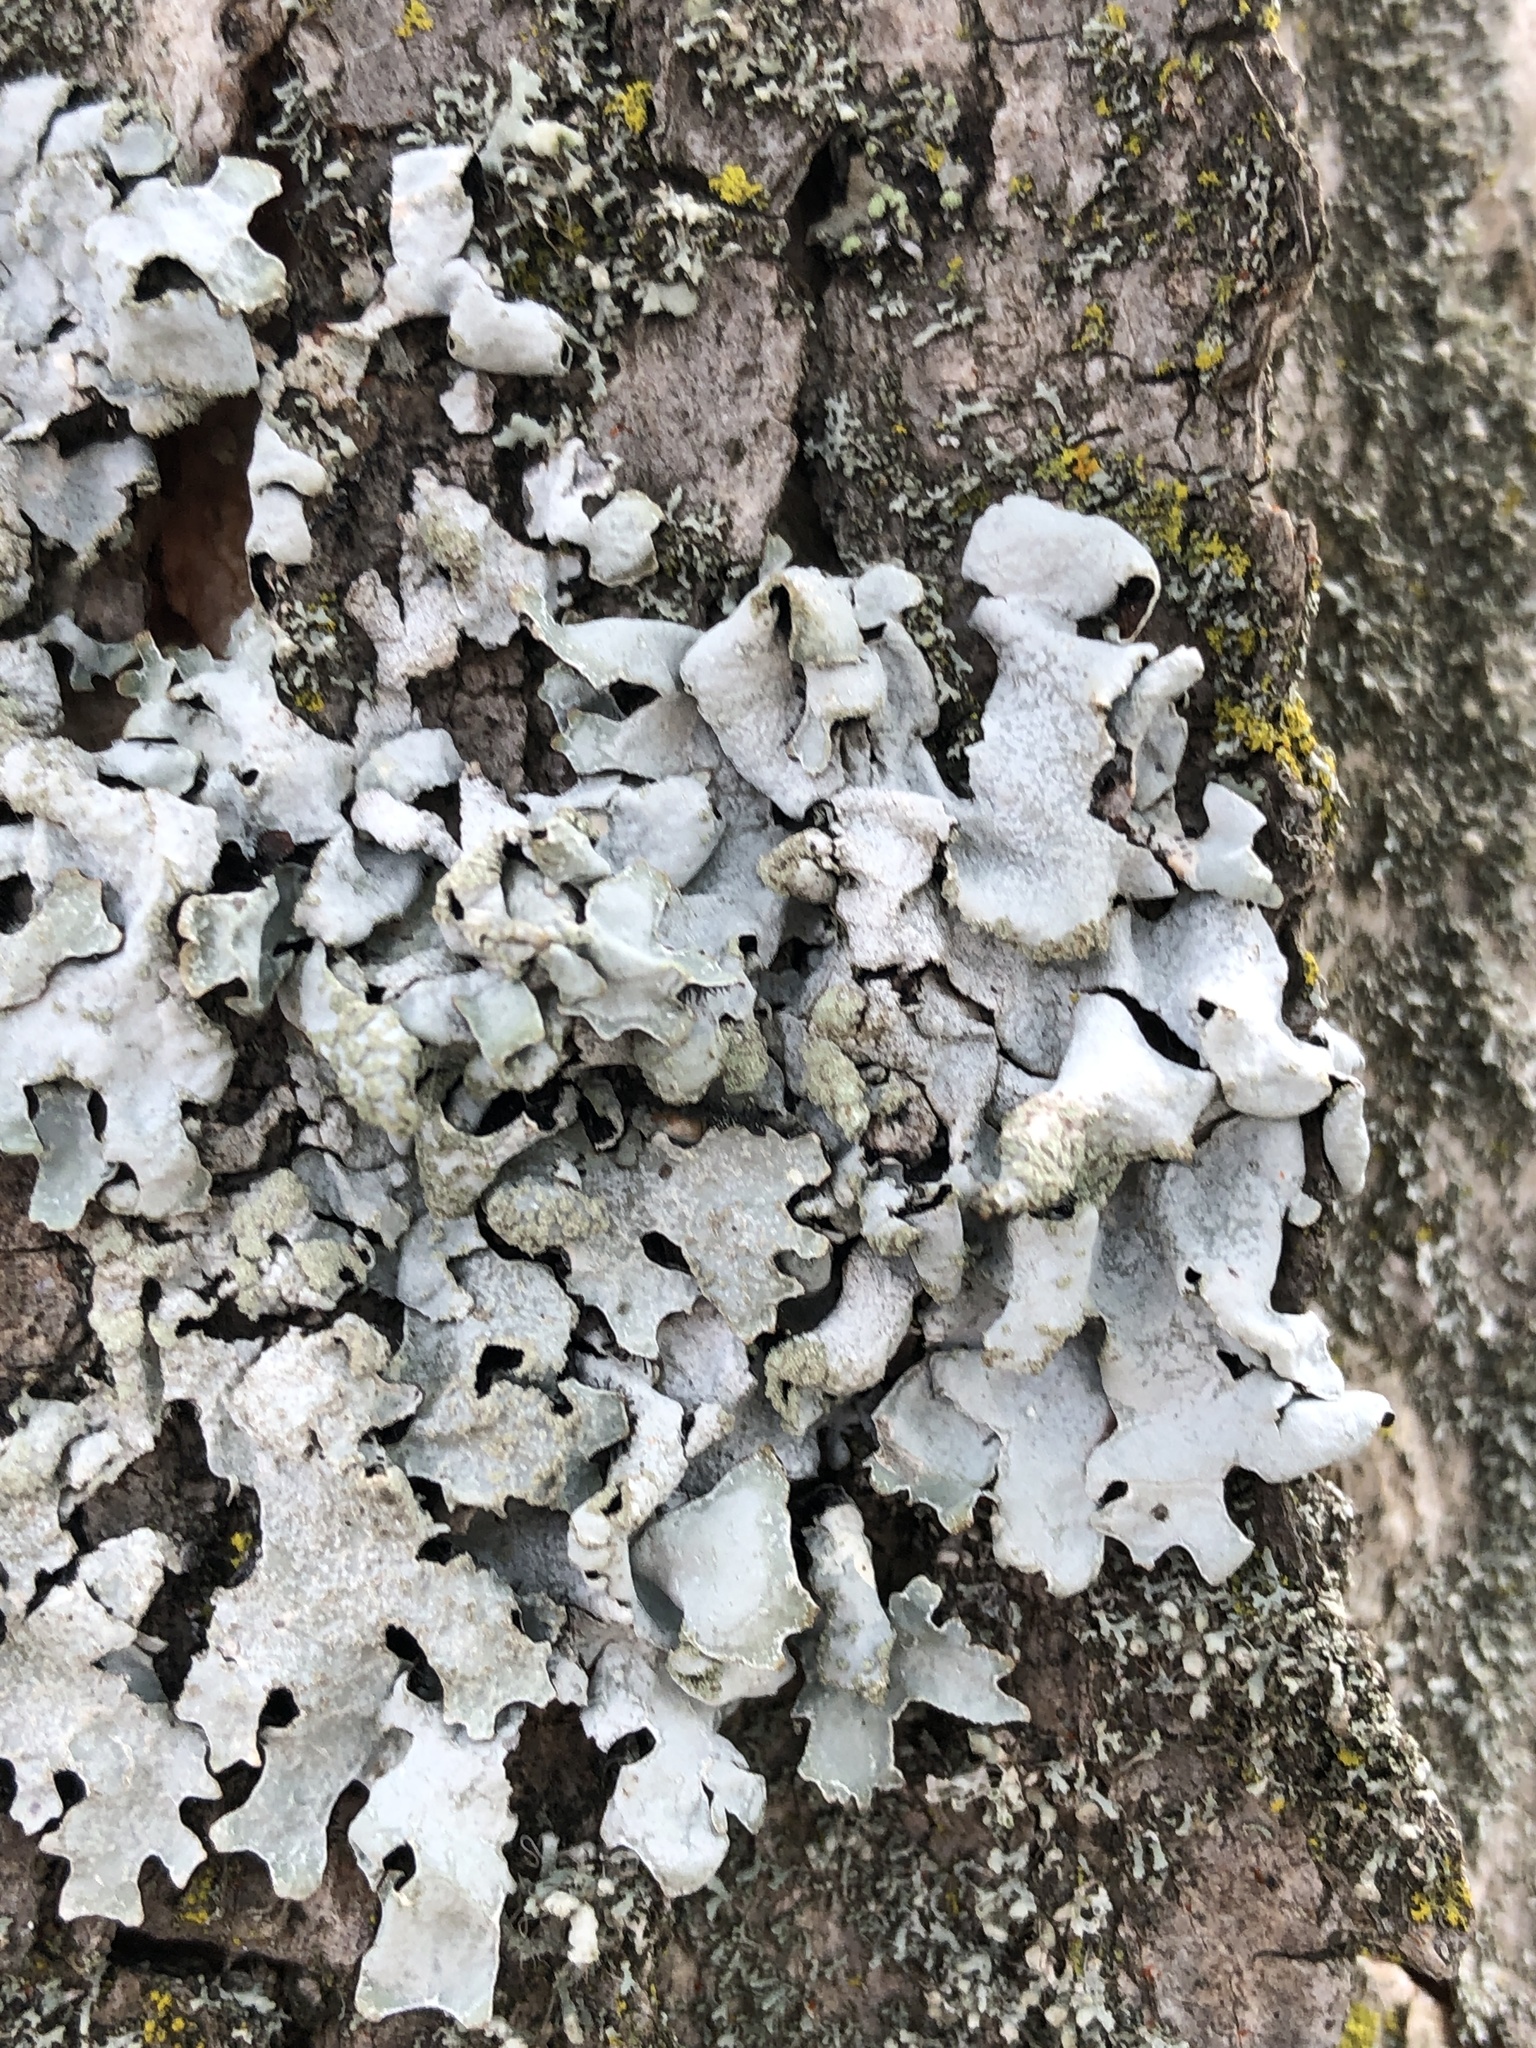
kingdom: Fungi
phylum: Ascomycota
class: Lecanoromycetes
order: Lecanorales
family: Parmeliaceae
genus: Parmelia
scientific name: Parmelia sulcata
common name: Netted shield lichen
